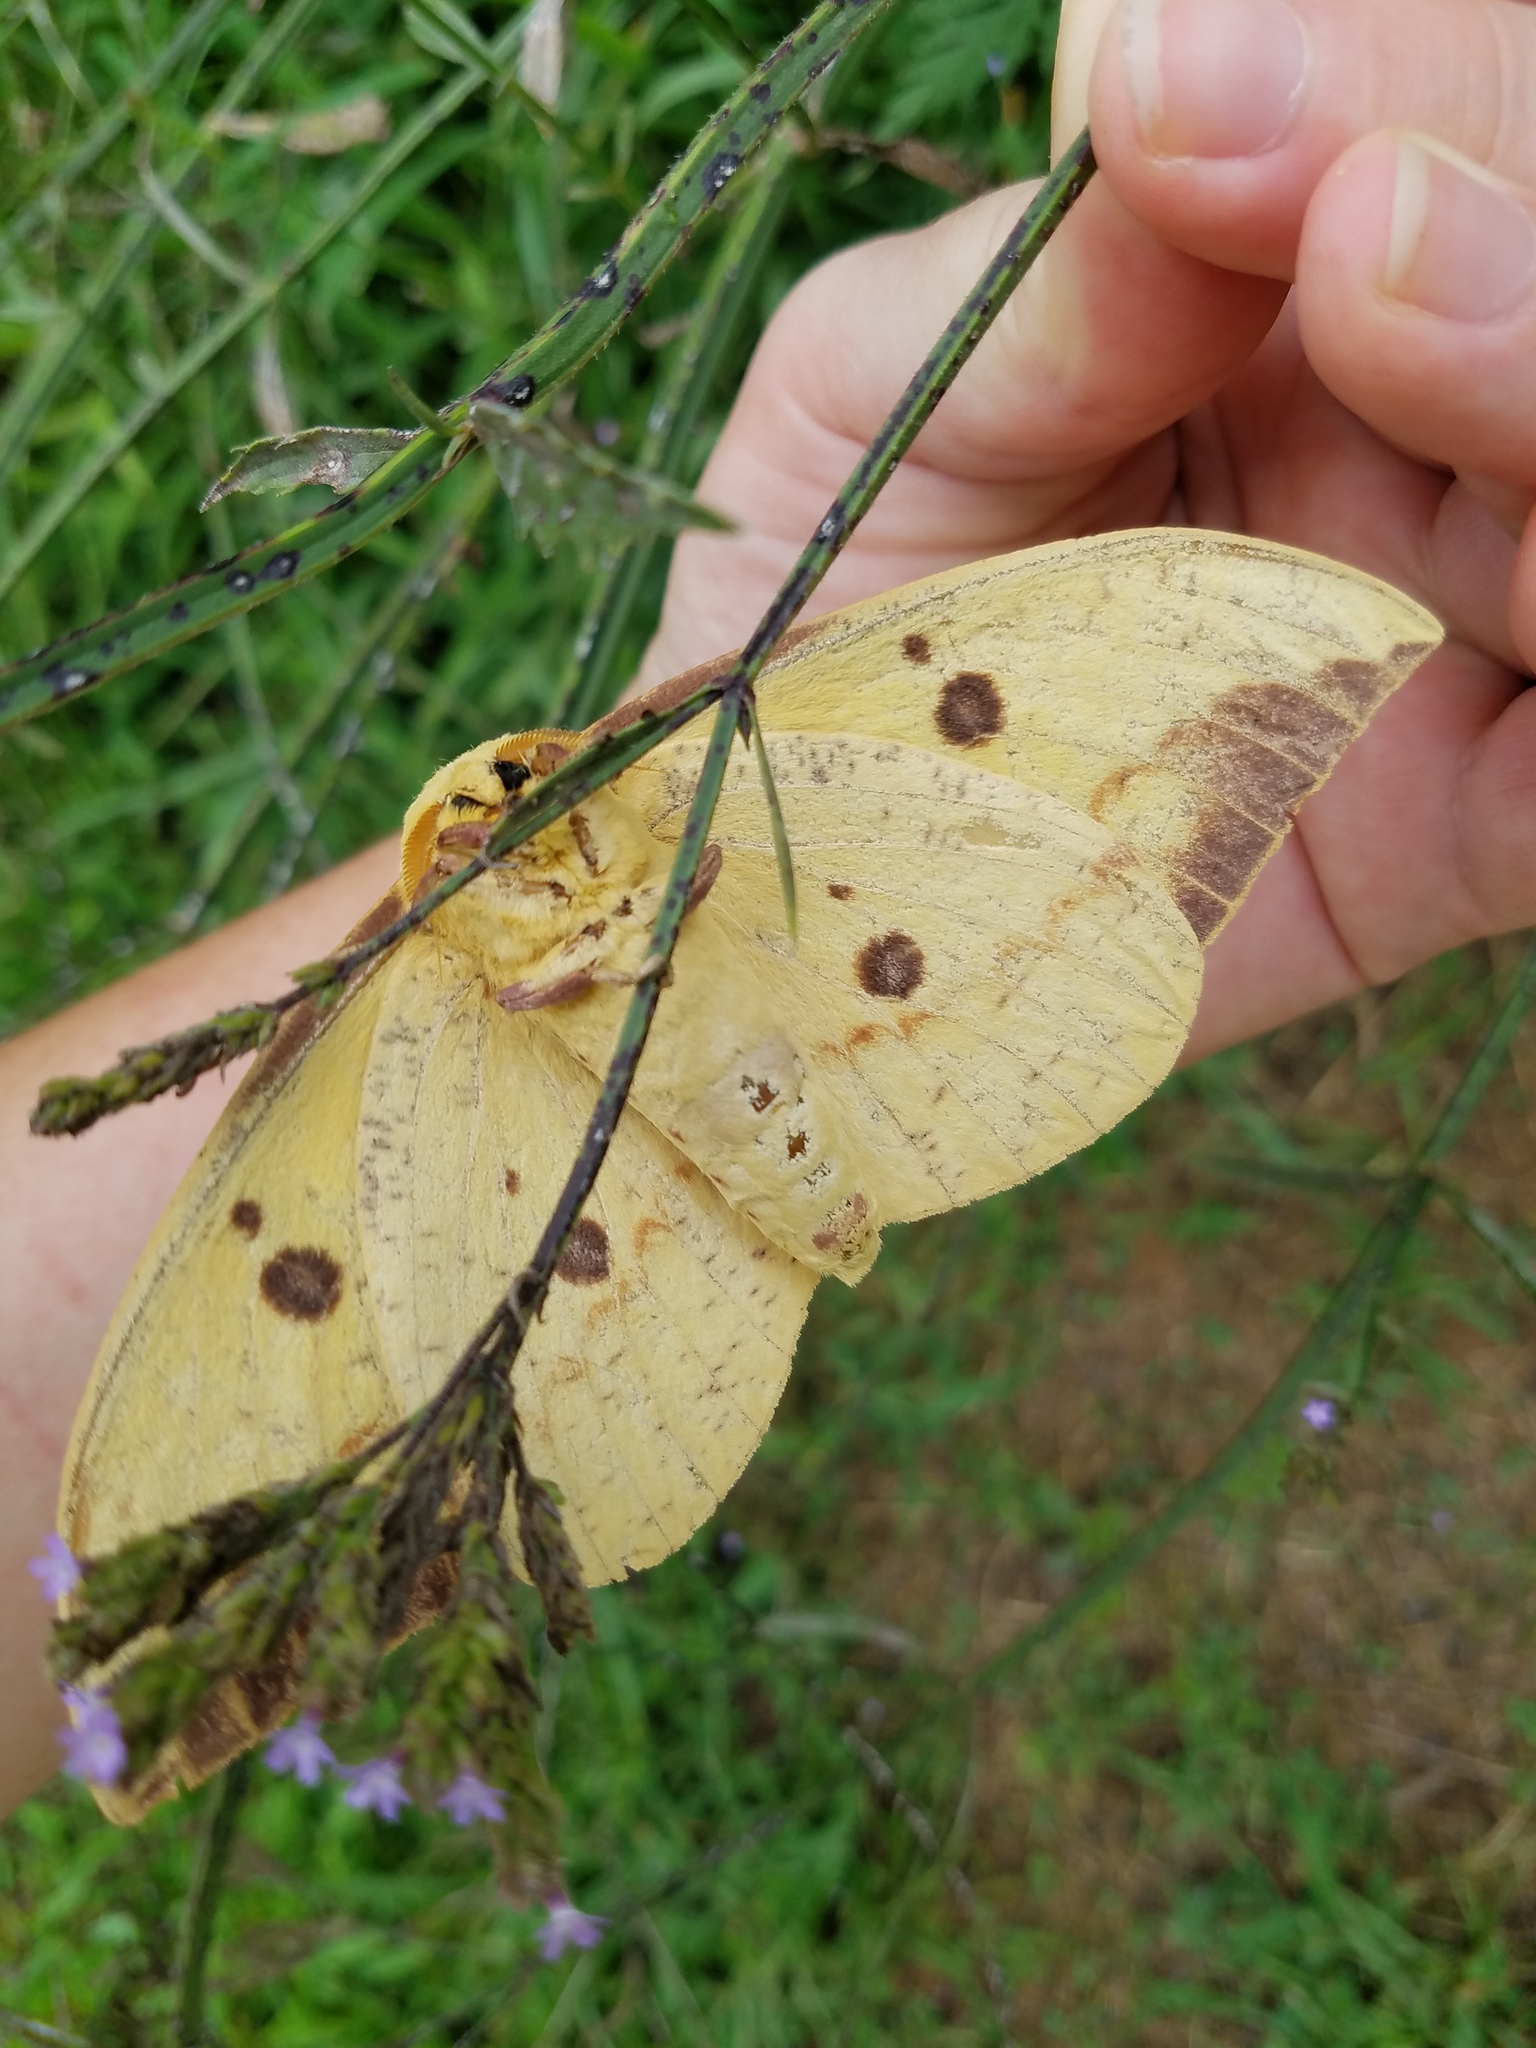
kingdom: Animalia
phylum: Arthropoda
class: Insecta
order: Lepidoptera
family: Saturniidae
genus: Eacles
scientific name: Eacles imperialis
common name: Imperial moth
